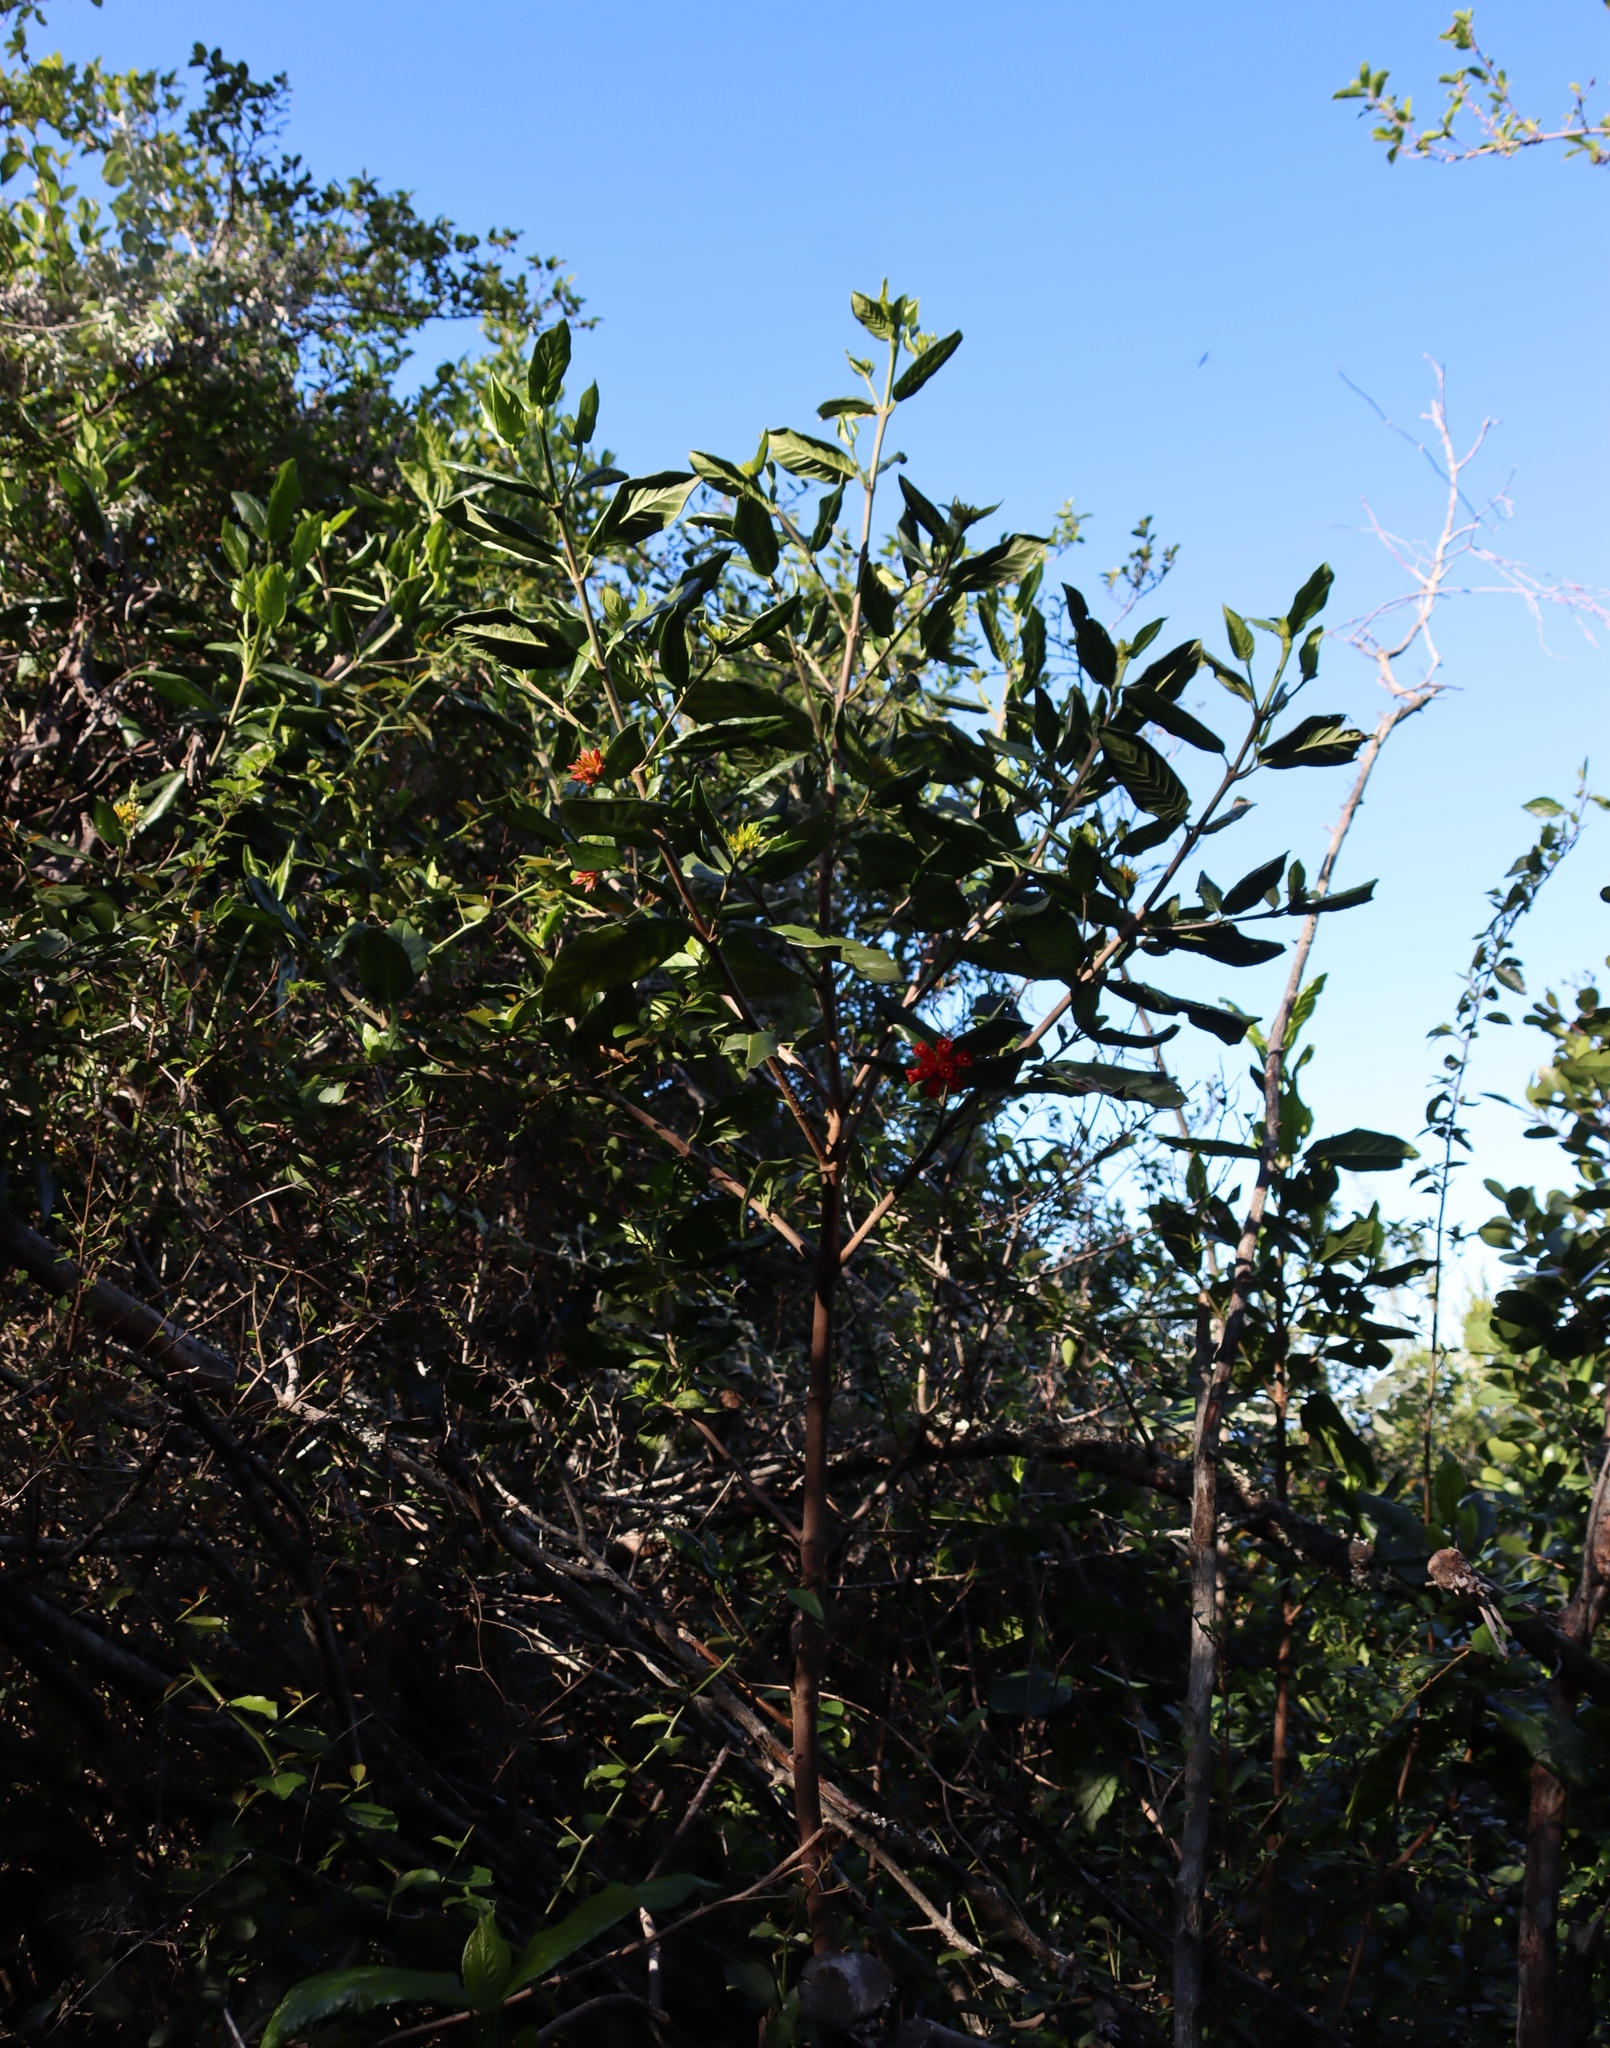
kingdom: Plantae
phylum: Tracheophyta
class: Magnoliopsida
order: Gentianales
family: Rubiaceae
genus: Burchellia
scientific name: Burchellia bubalina
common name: Wild pomegranate
